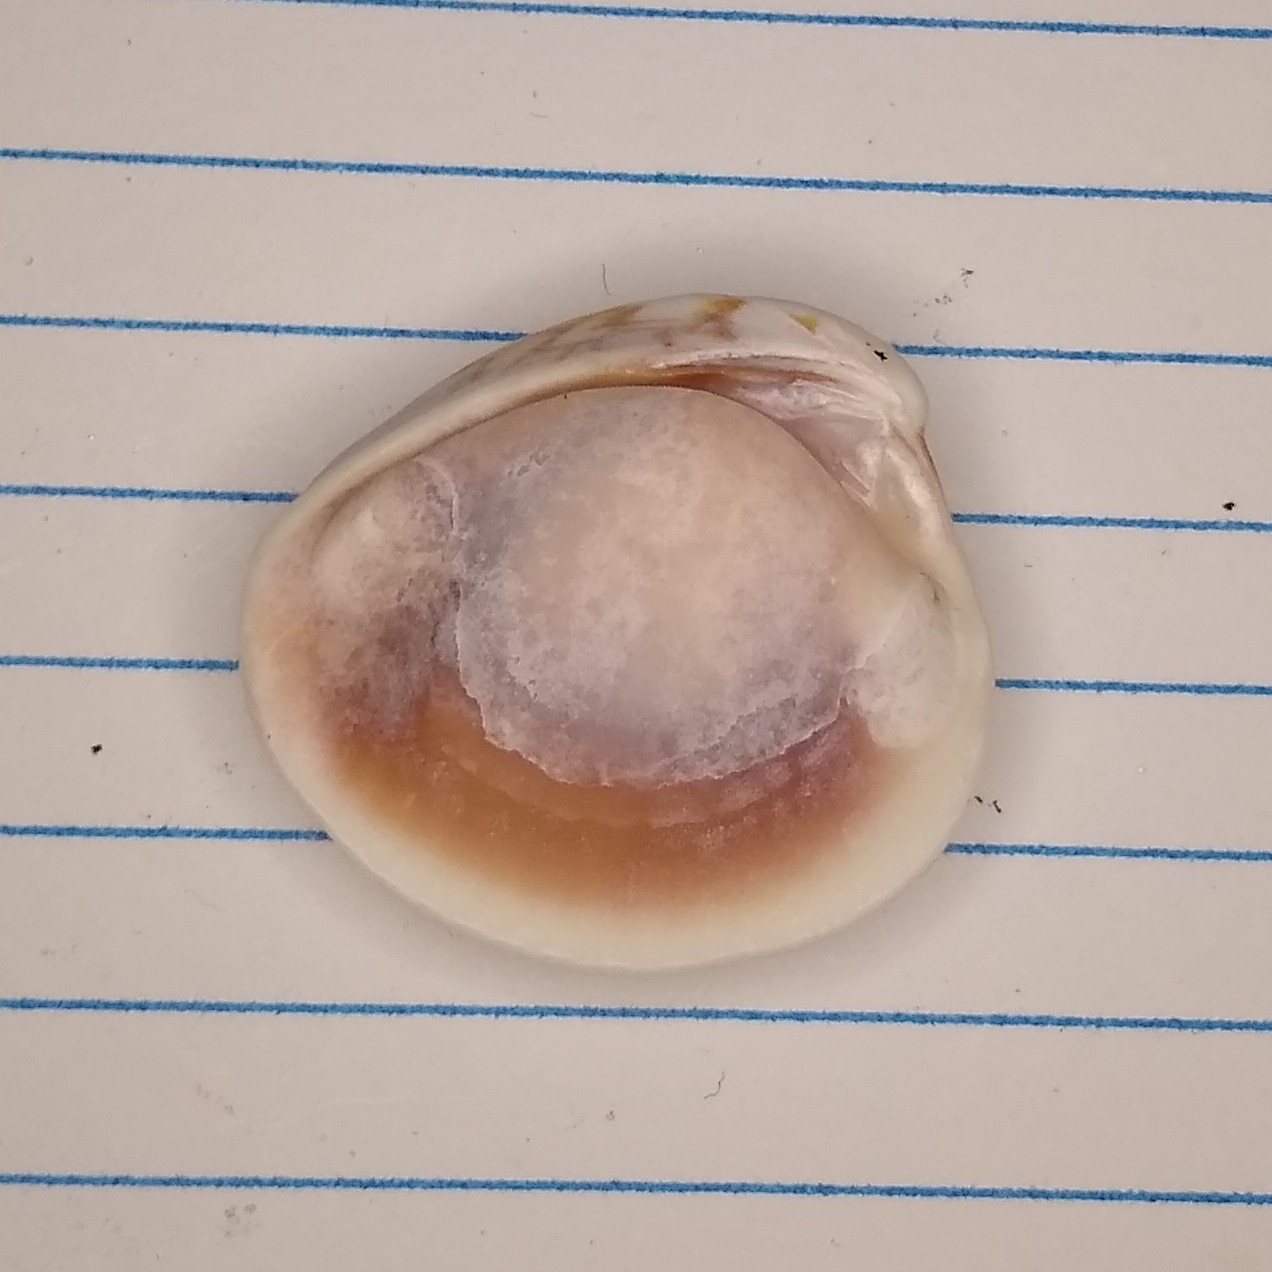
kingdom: Animalia
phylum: Mollusca
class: Bivalvia
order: Venerida
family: Veneridae
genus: Chione
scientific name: Chione elevata
